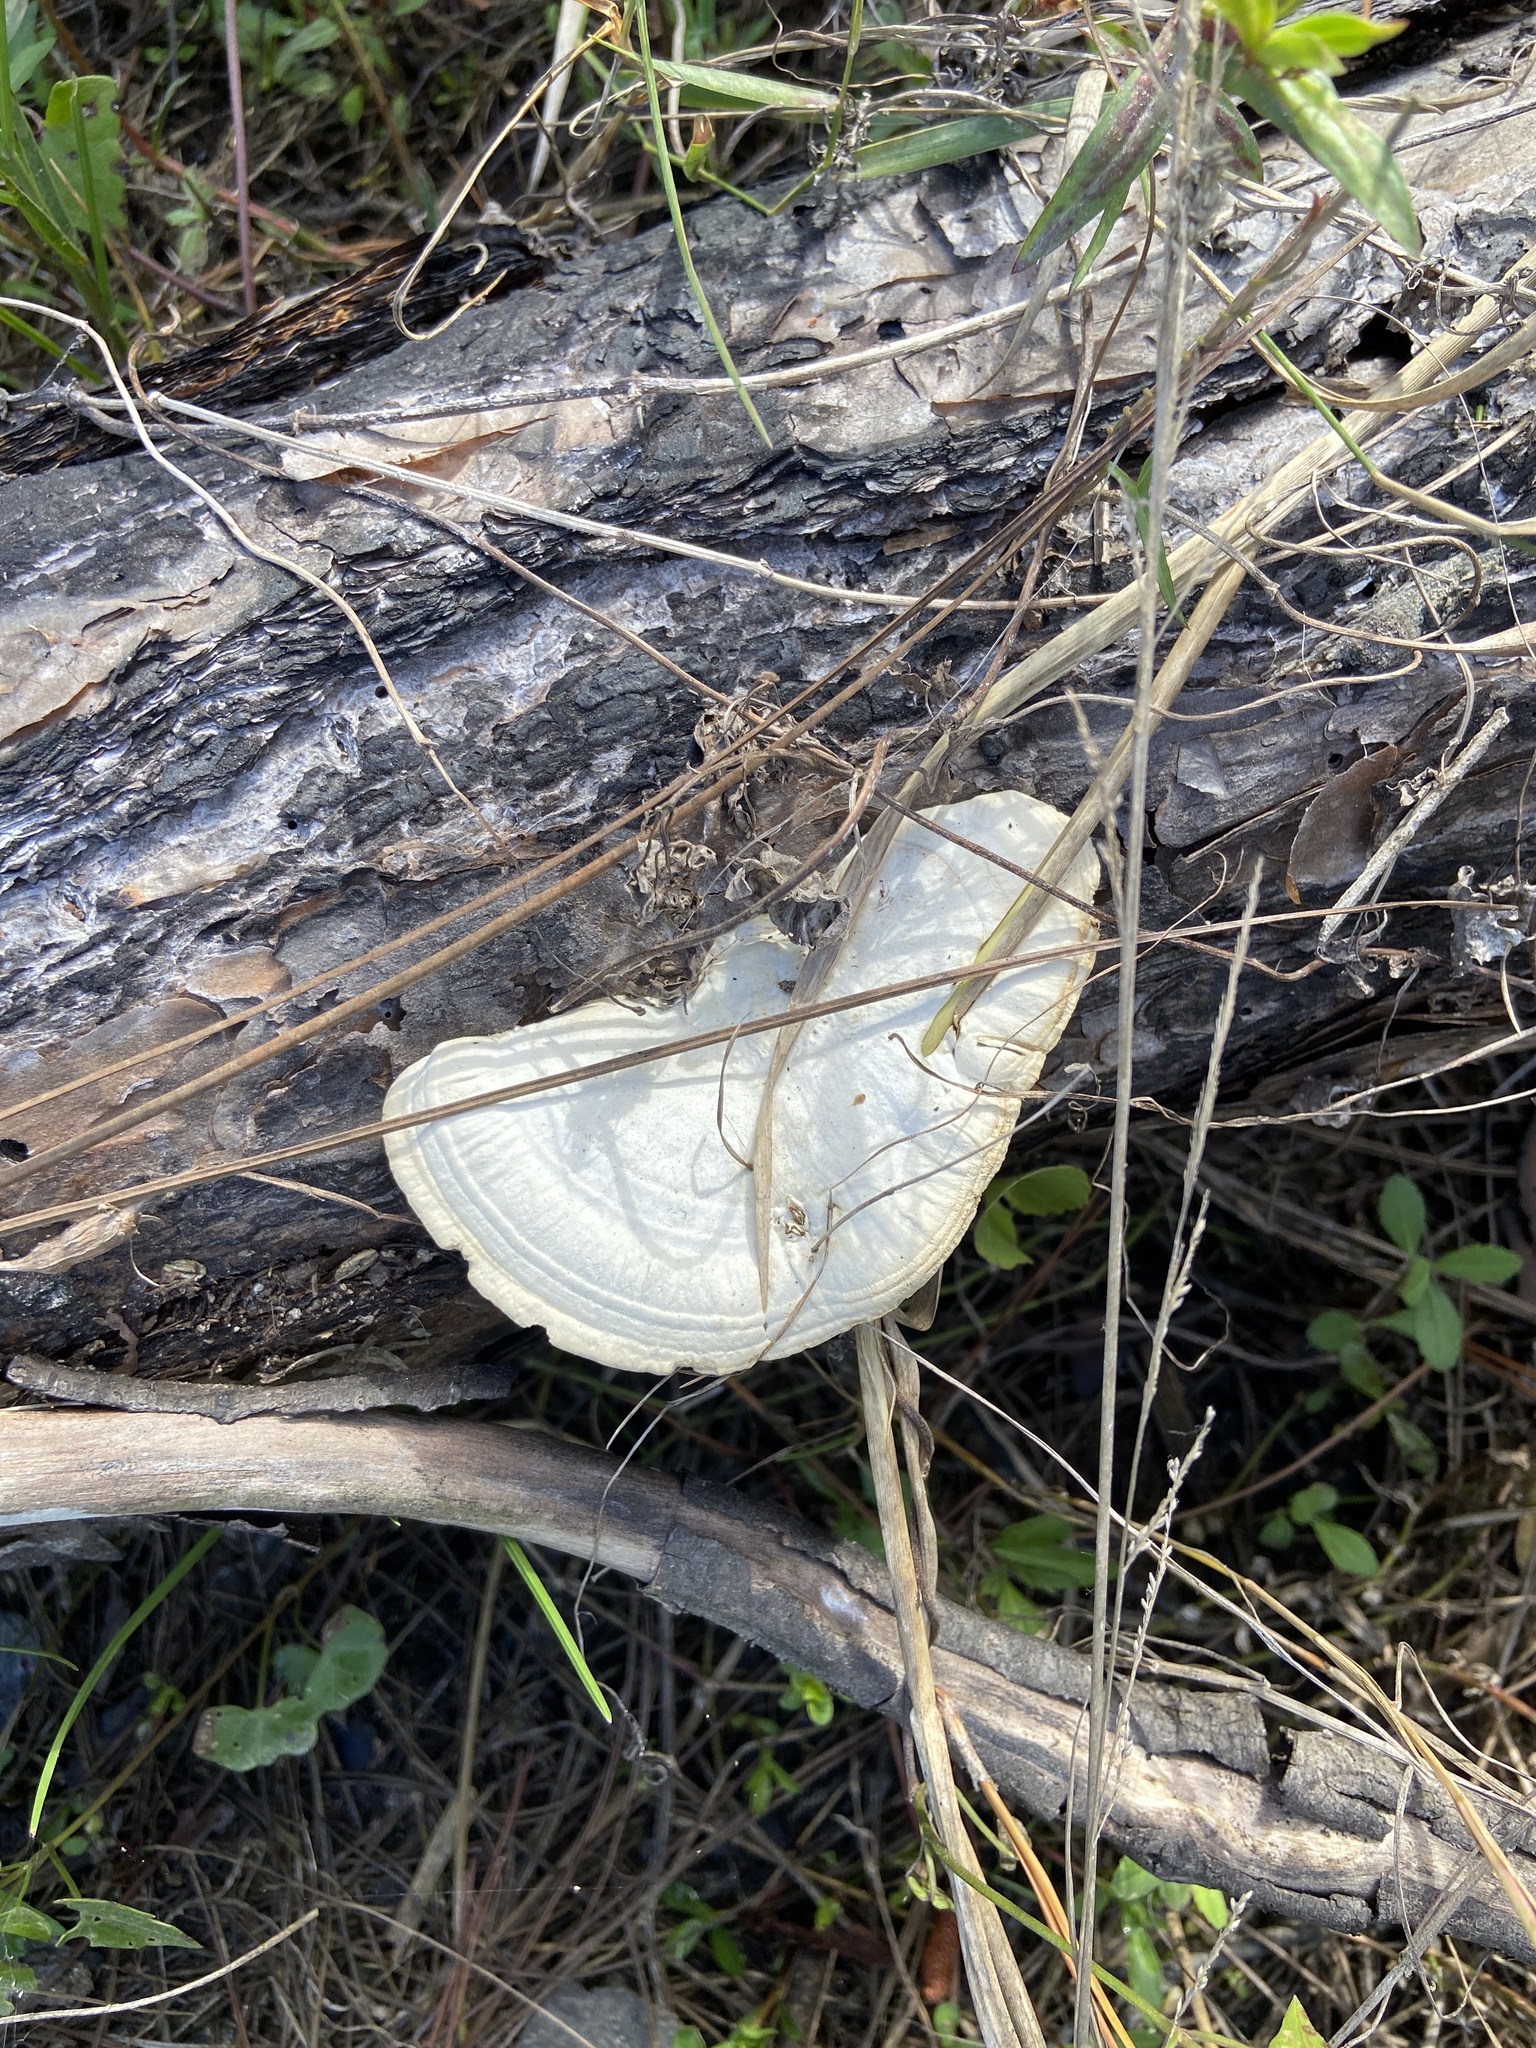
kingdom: Fungi
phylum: Basidiomycota
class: Agaricomycetes
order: Polyporales
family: Polyporaceae
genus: Trametes
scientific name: Trametes lactinea
